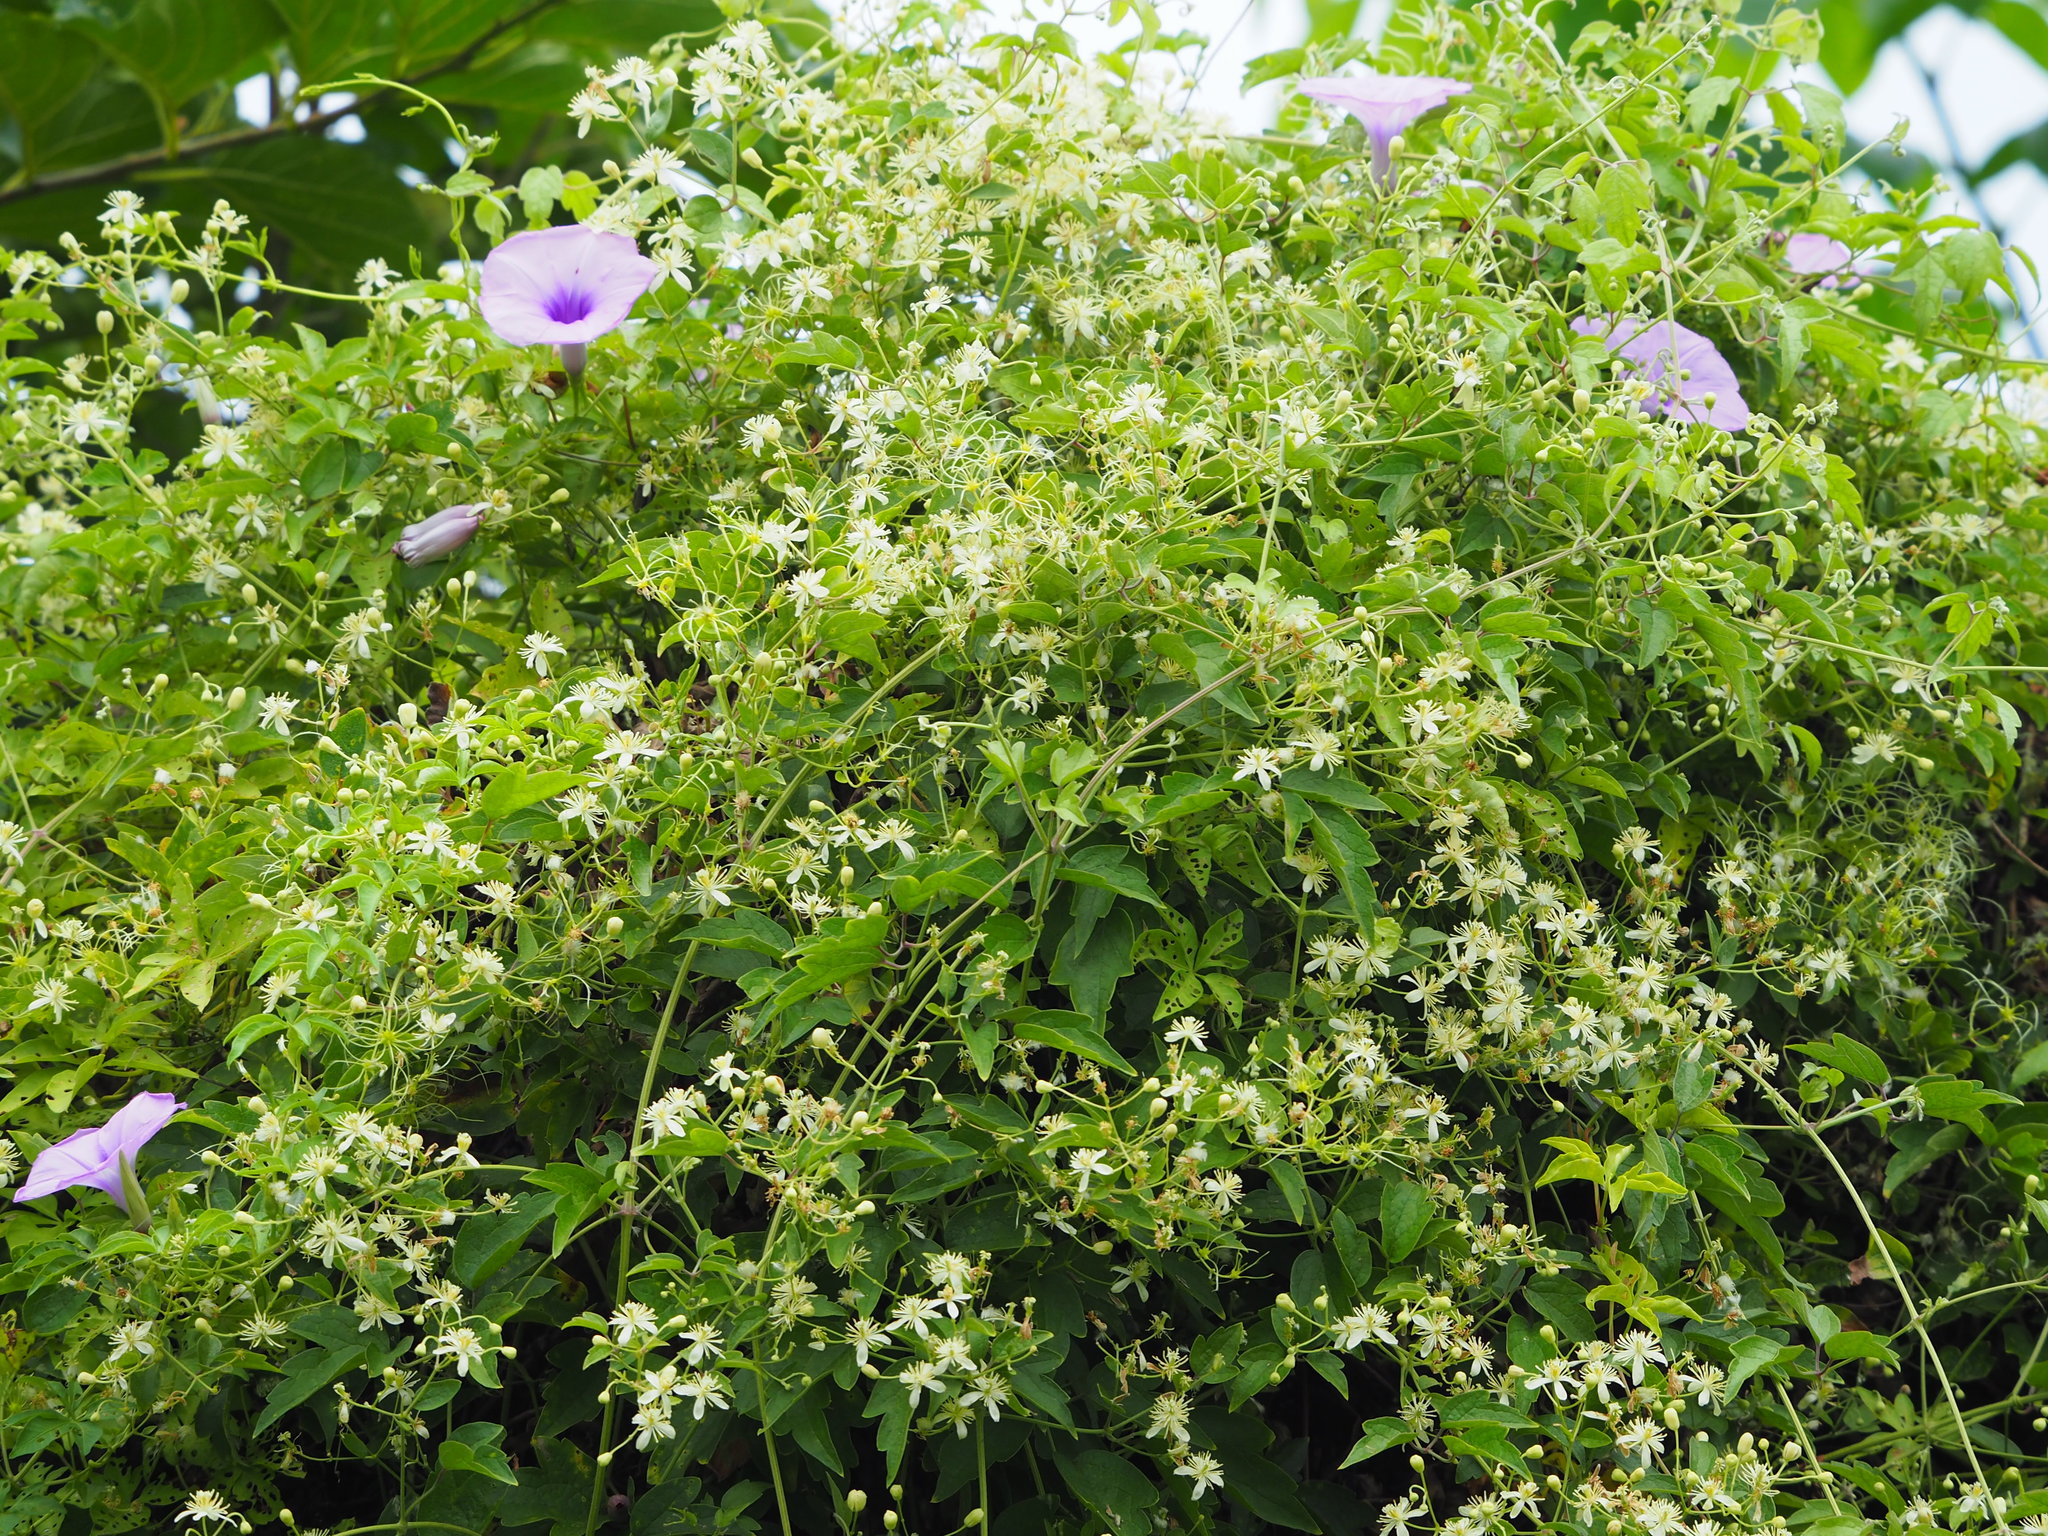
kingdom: Plantae
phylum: Tracheophyta
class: Magnoliopsida
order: Ranunculales
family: Ranunculaceae
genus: Clematis
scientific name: Clematis grata
